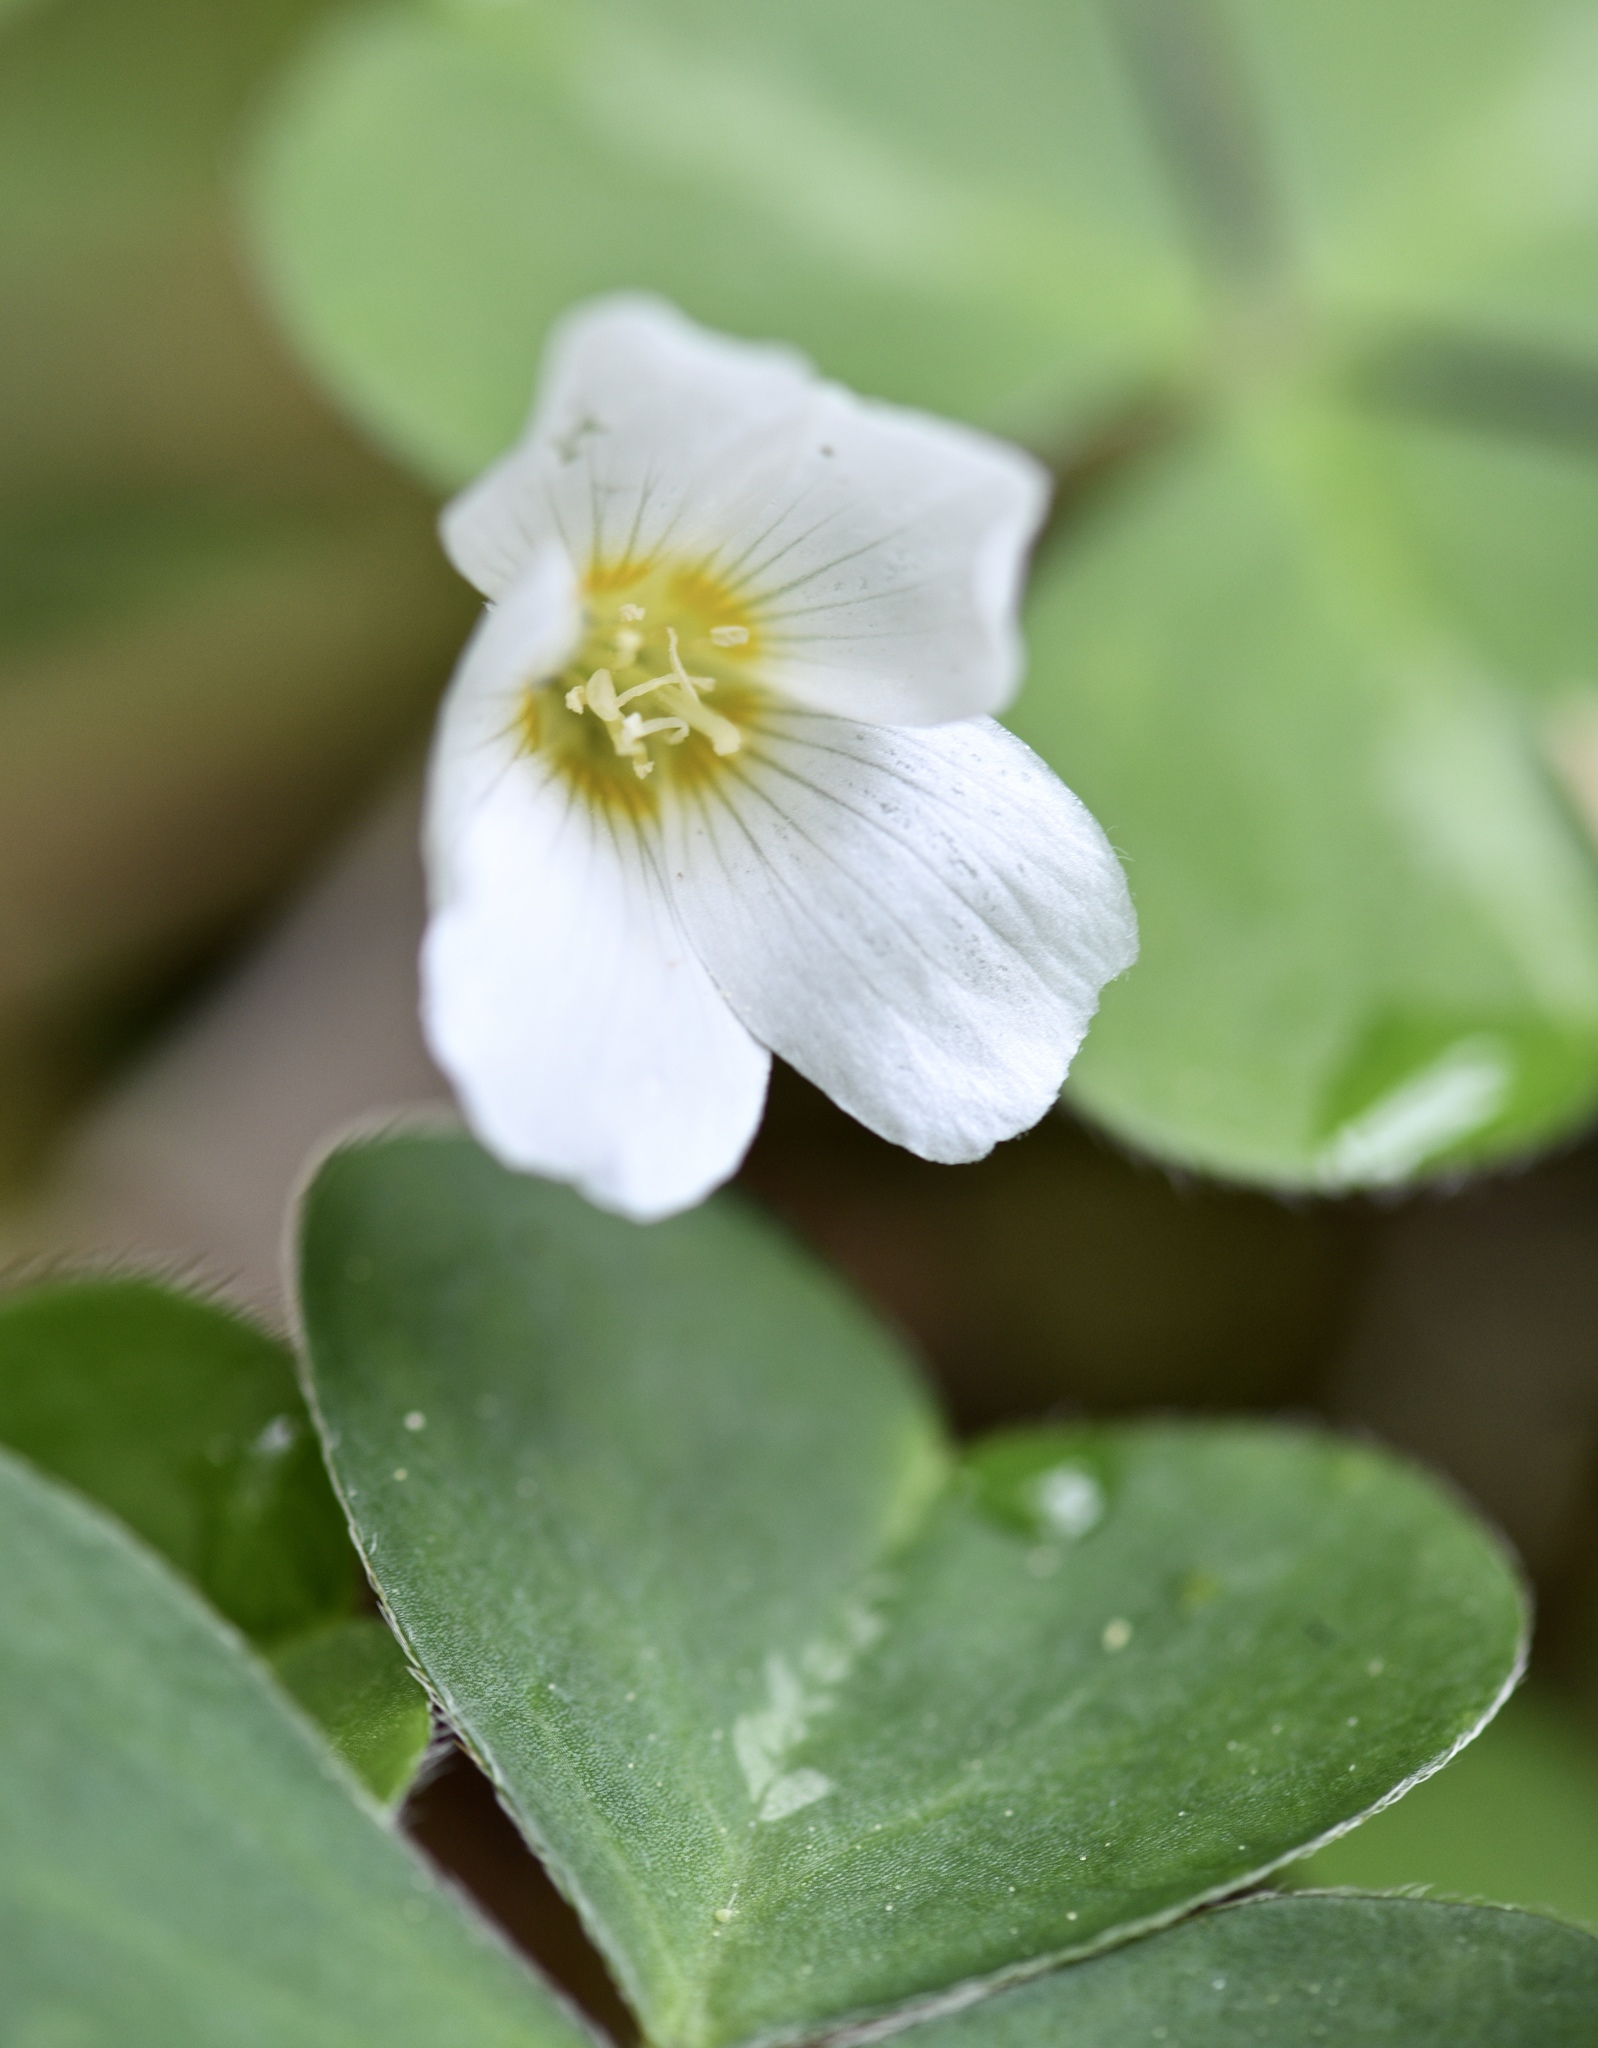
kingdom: Plantae
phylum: Tracheophyta
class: Magnoliopsida
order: Oxalidales
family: Oxalidaceae
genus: Oxalis
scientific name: Oxalis oregana
